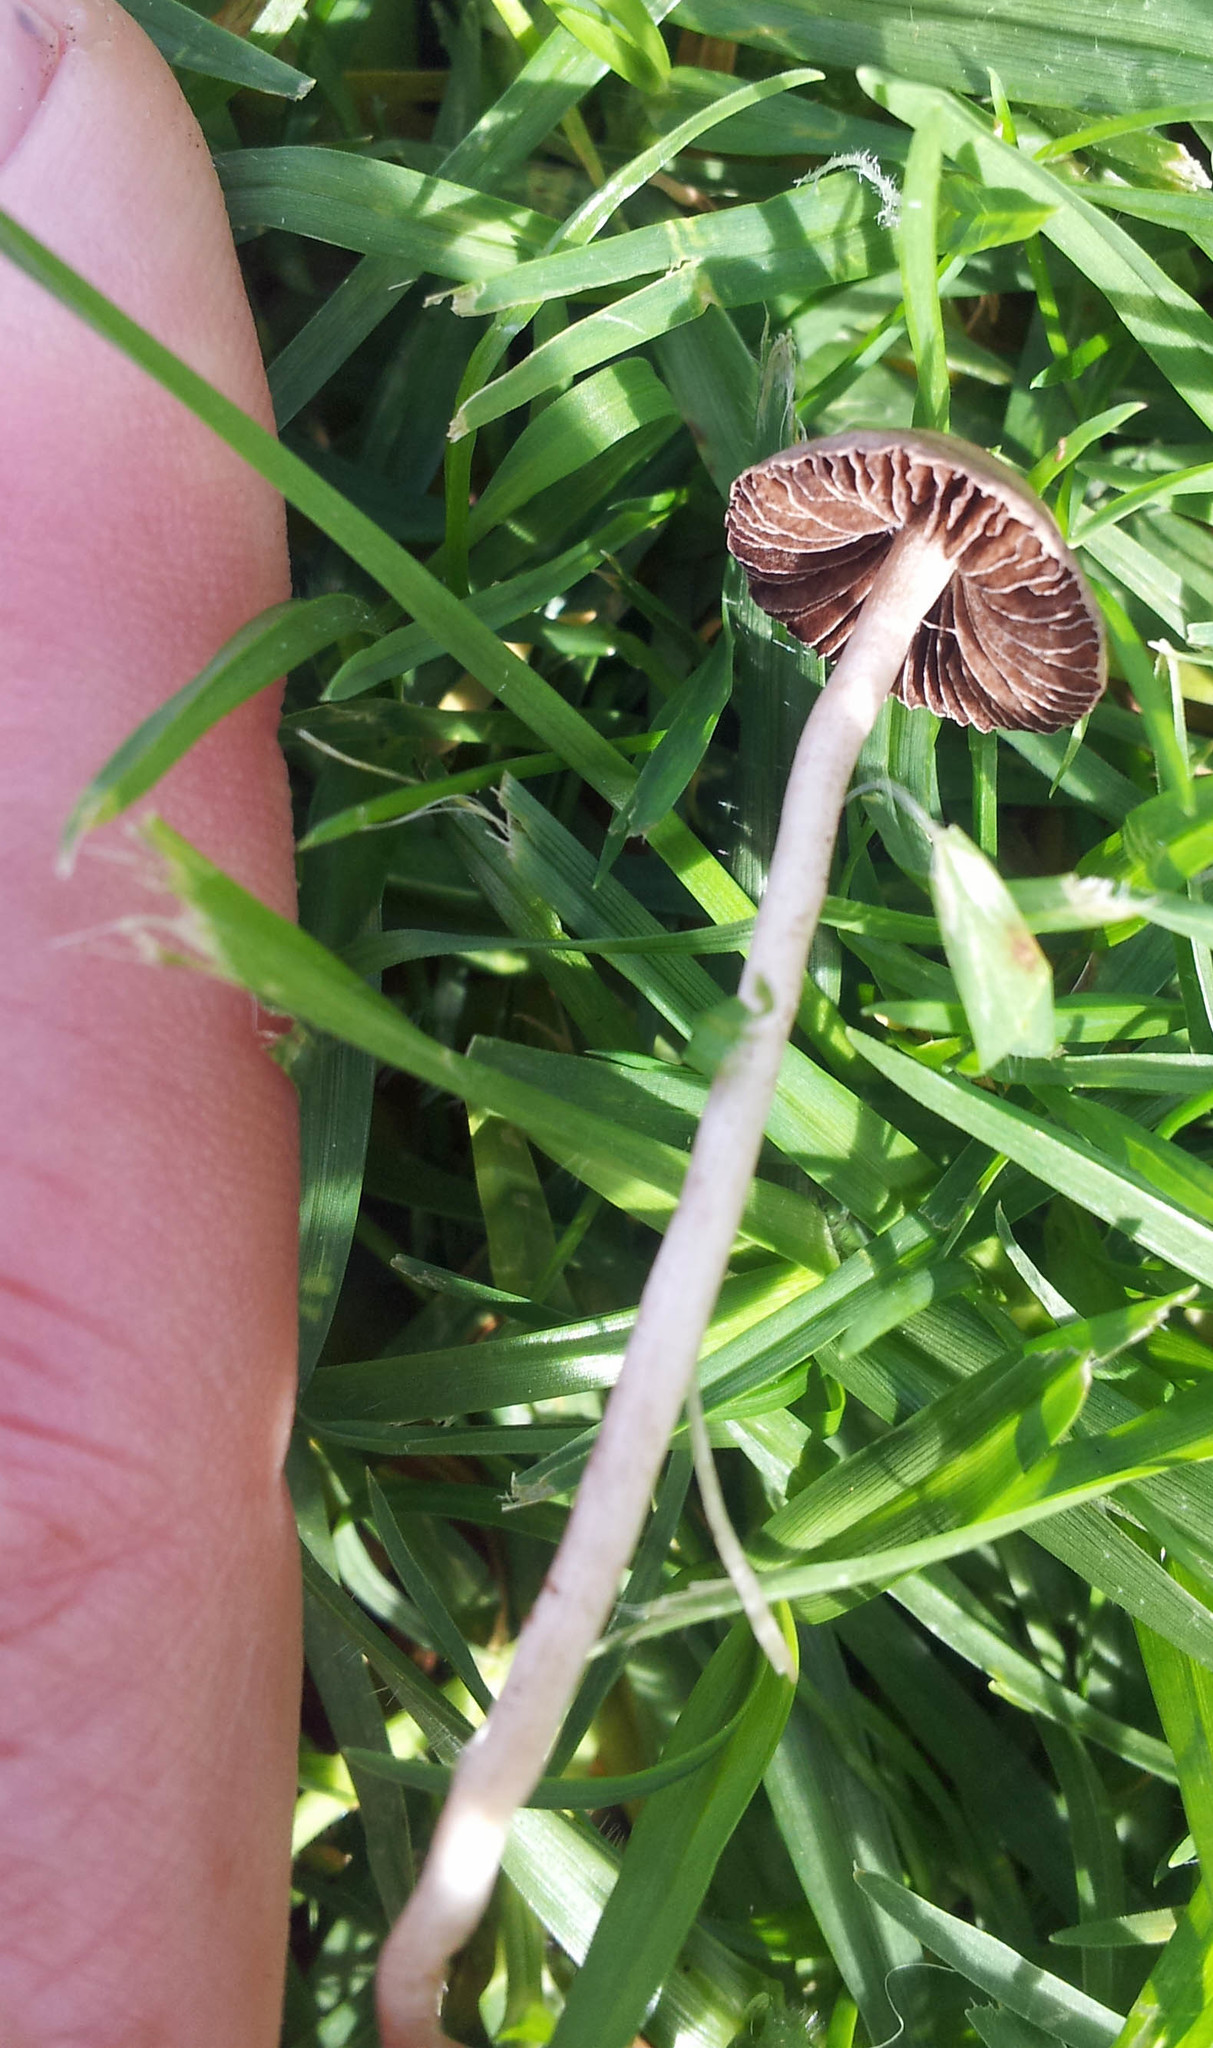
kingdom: Fungi
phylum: Basidiomycota
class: Agaricomycetes
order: Agaricales
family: Bolbitiaceae
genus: Panaeolina
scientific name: Panaeolina foenisecii
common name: Brown hay cap
